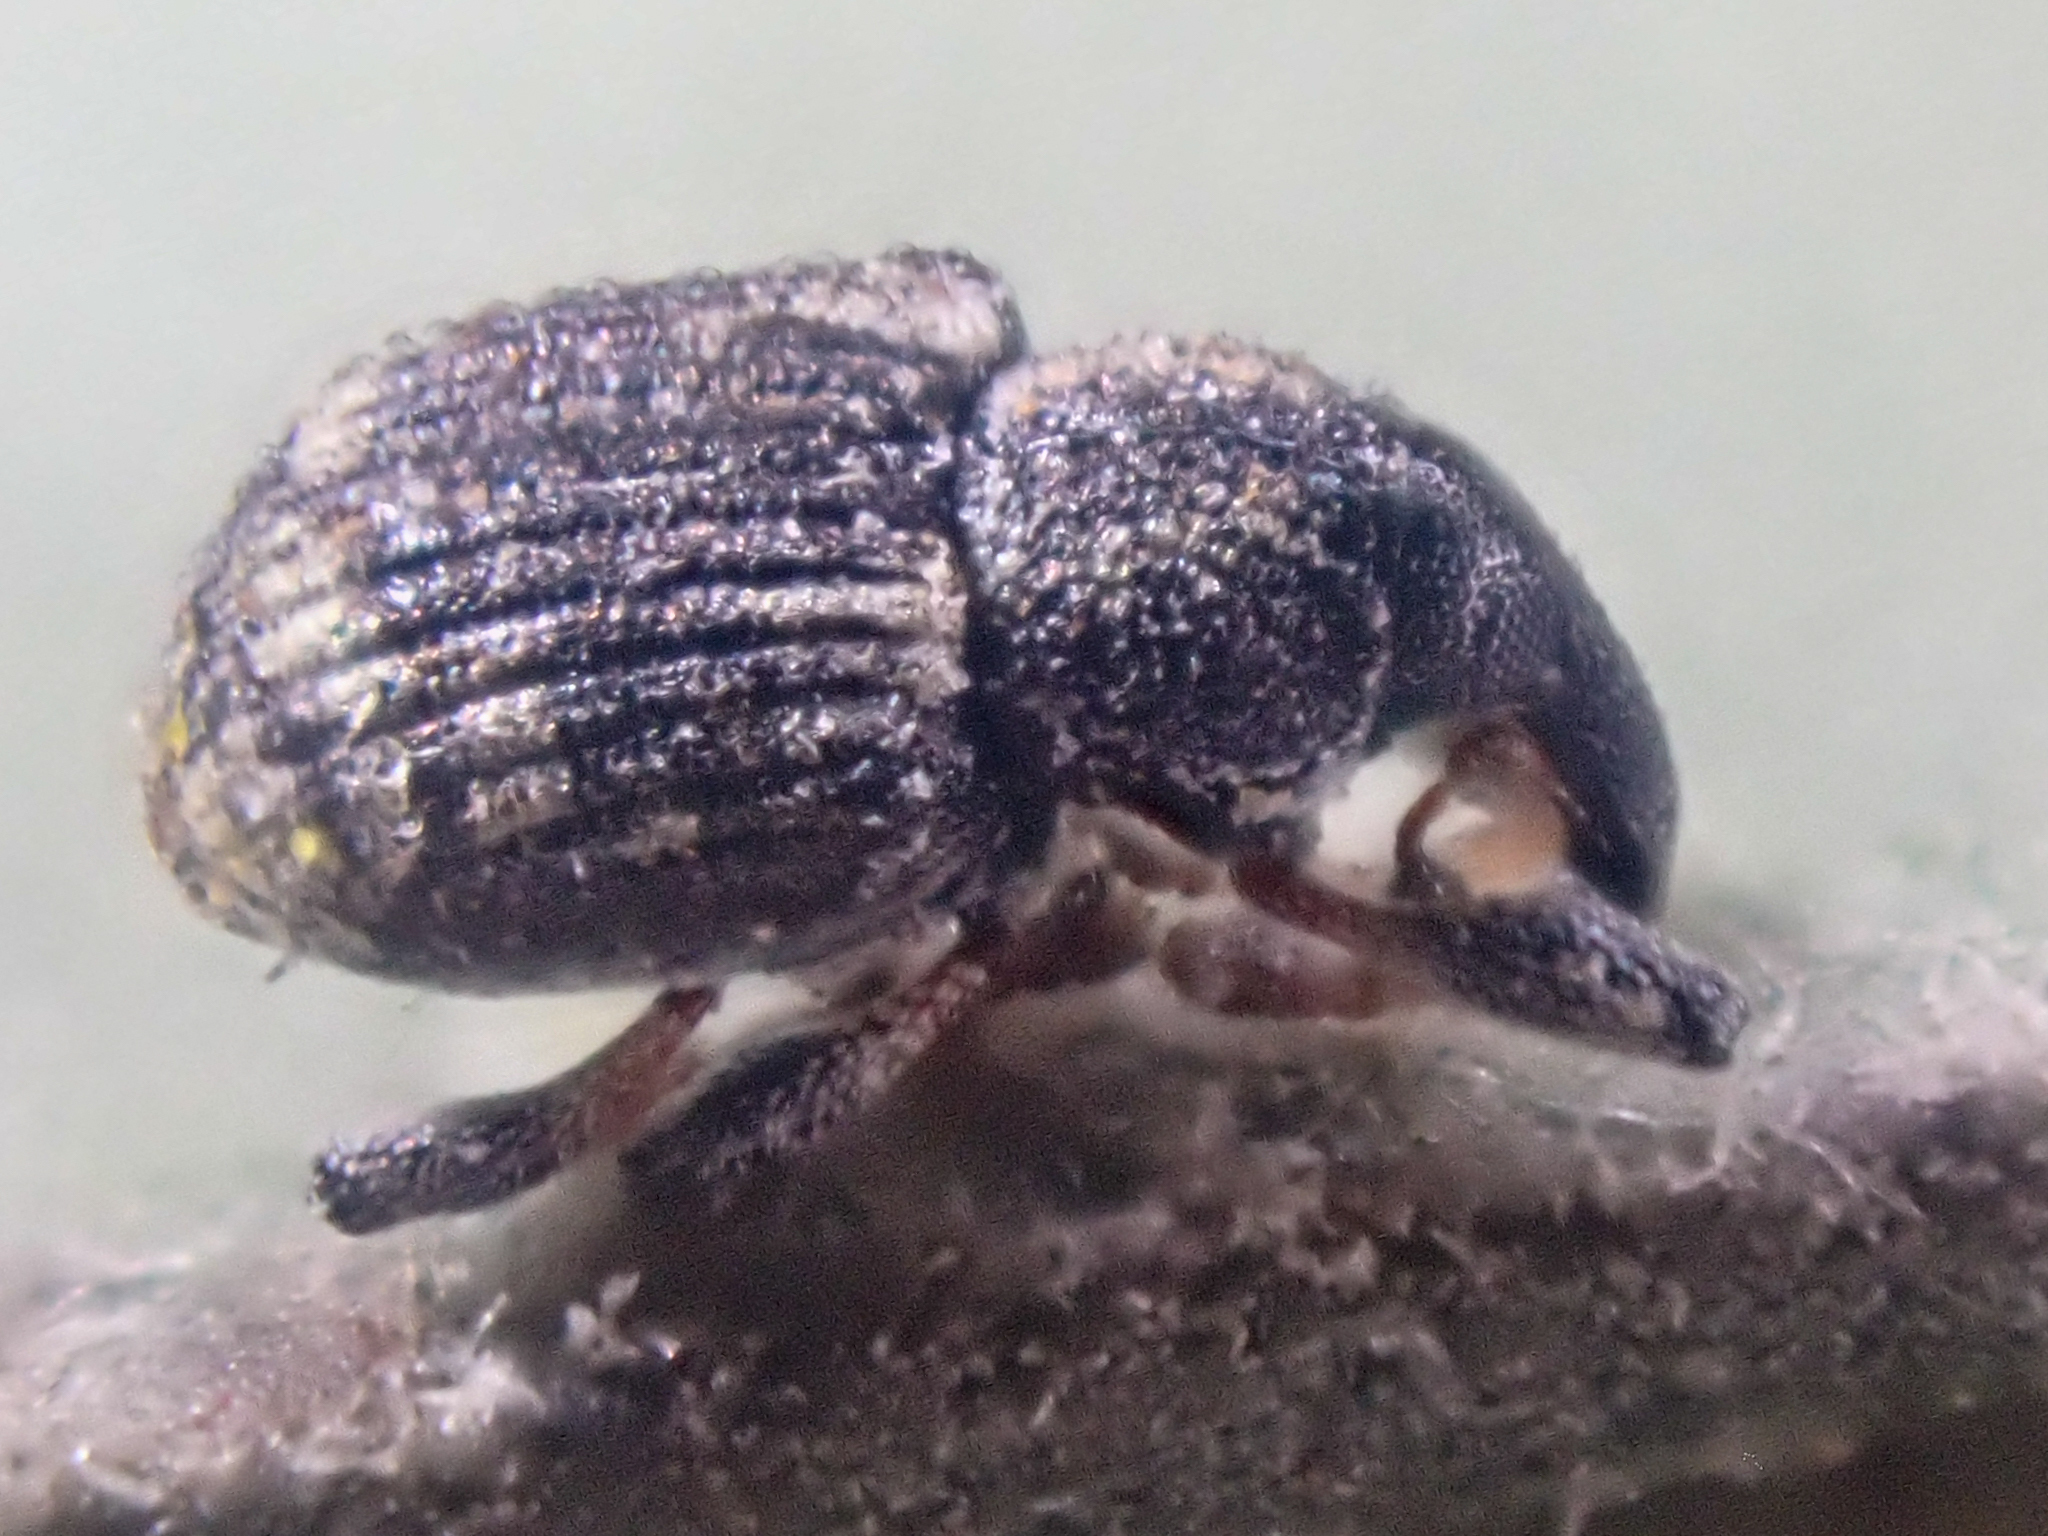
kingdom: Animalia
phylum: Arthropoda
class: Insecta
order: Coleoptera
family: Brachyceridae
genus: Tanysphyrus
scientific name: Tanysphyrus lemnae
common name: Duckweed weevil
